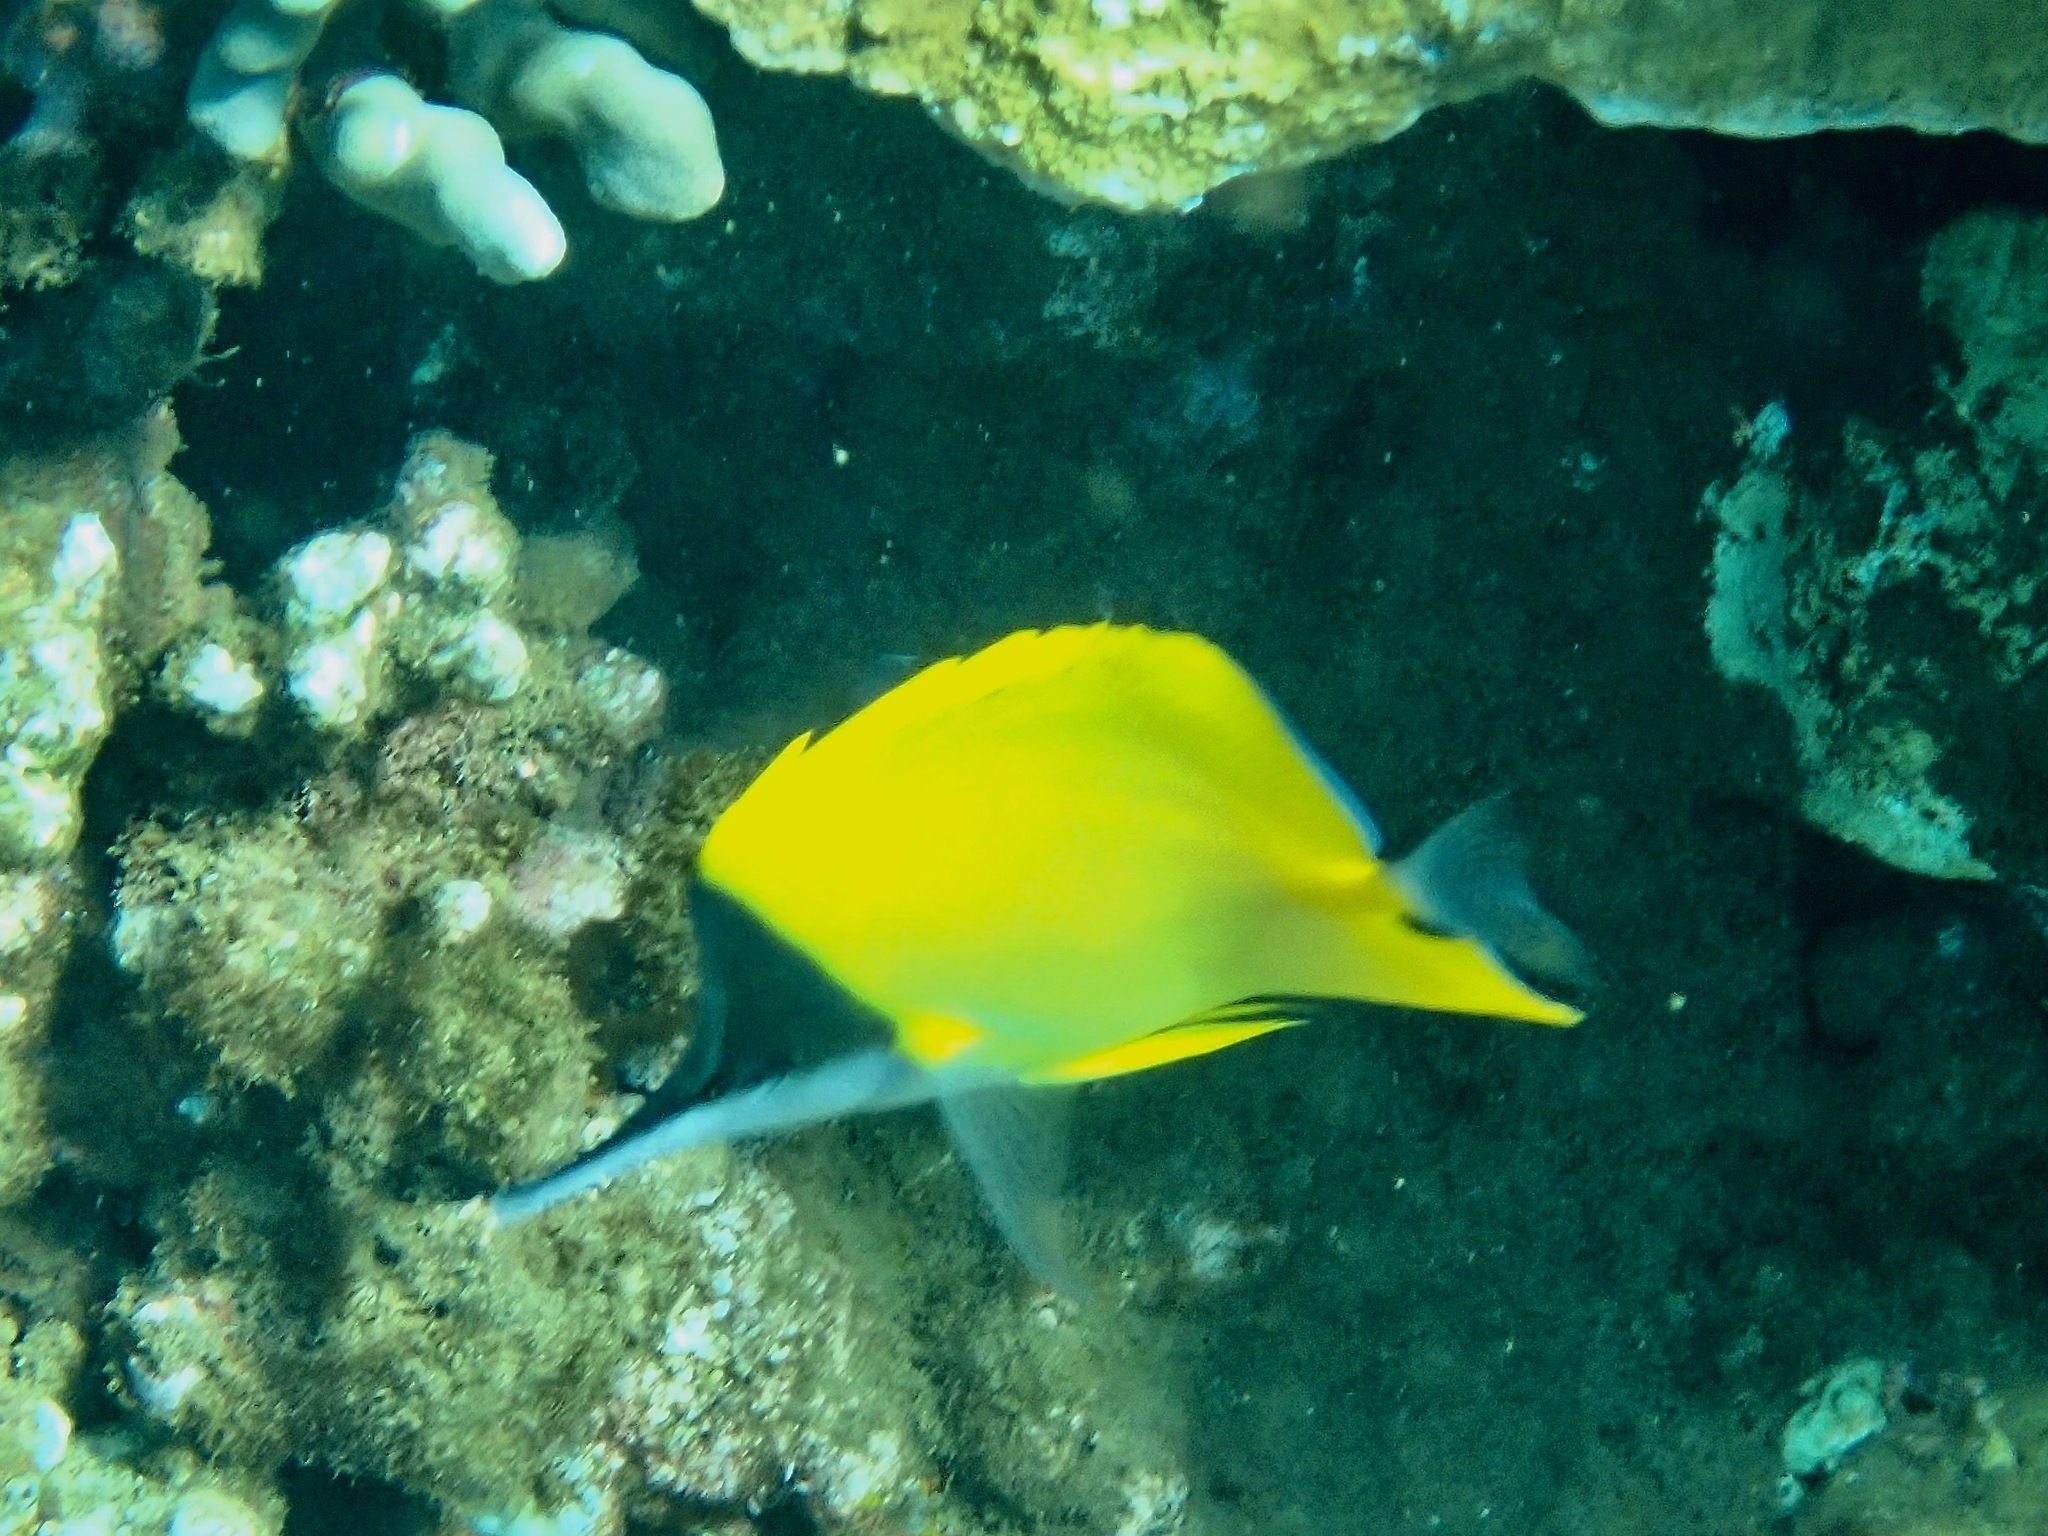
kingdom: Animalia
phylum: Chordata
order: Perciformes
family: Chaetodontidae
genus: Forcipiger
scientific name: Forcipiger flavissimus
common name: Forcepsfish
